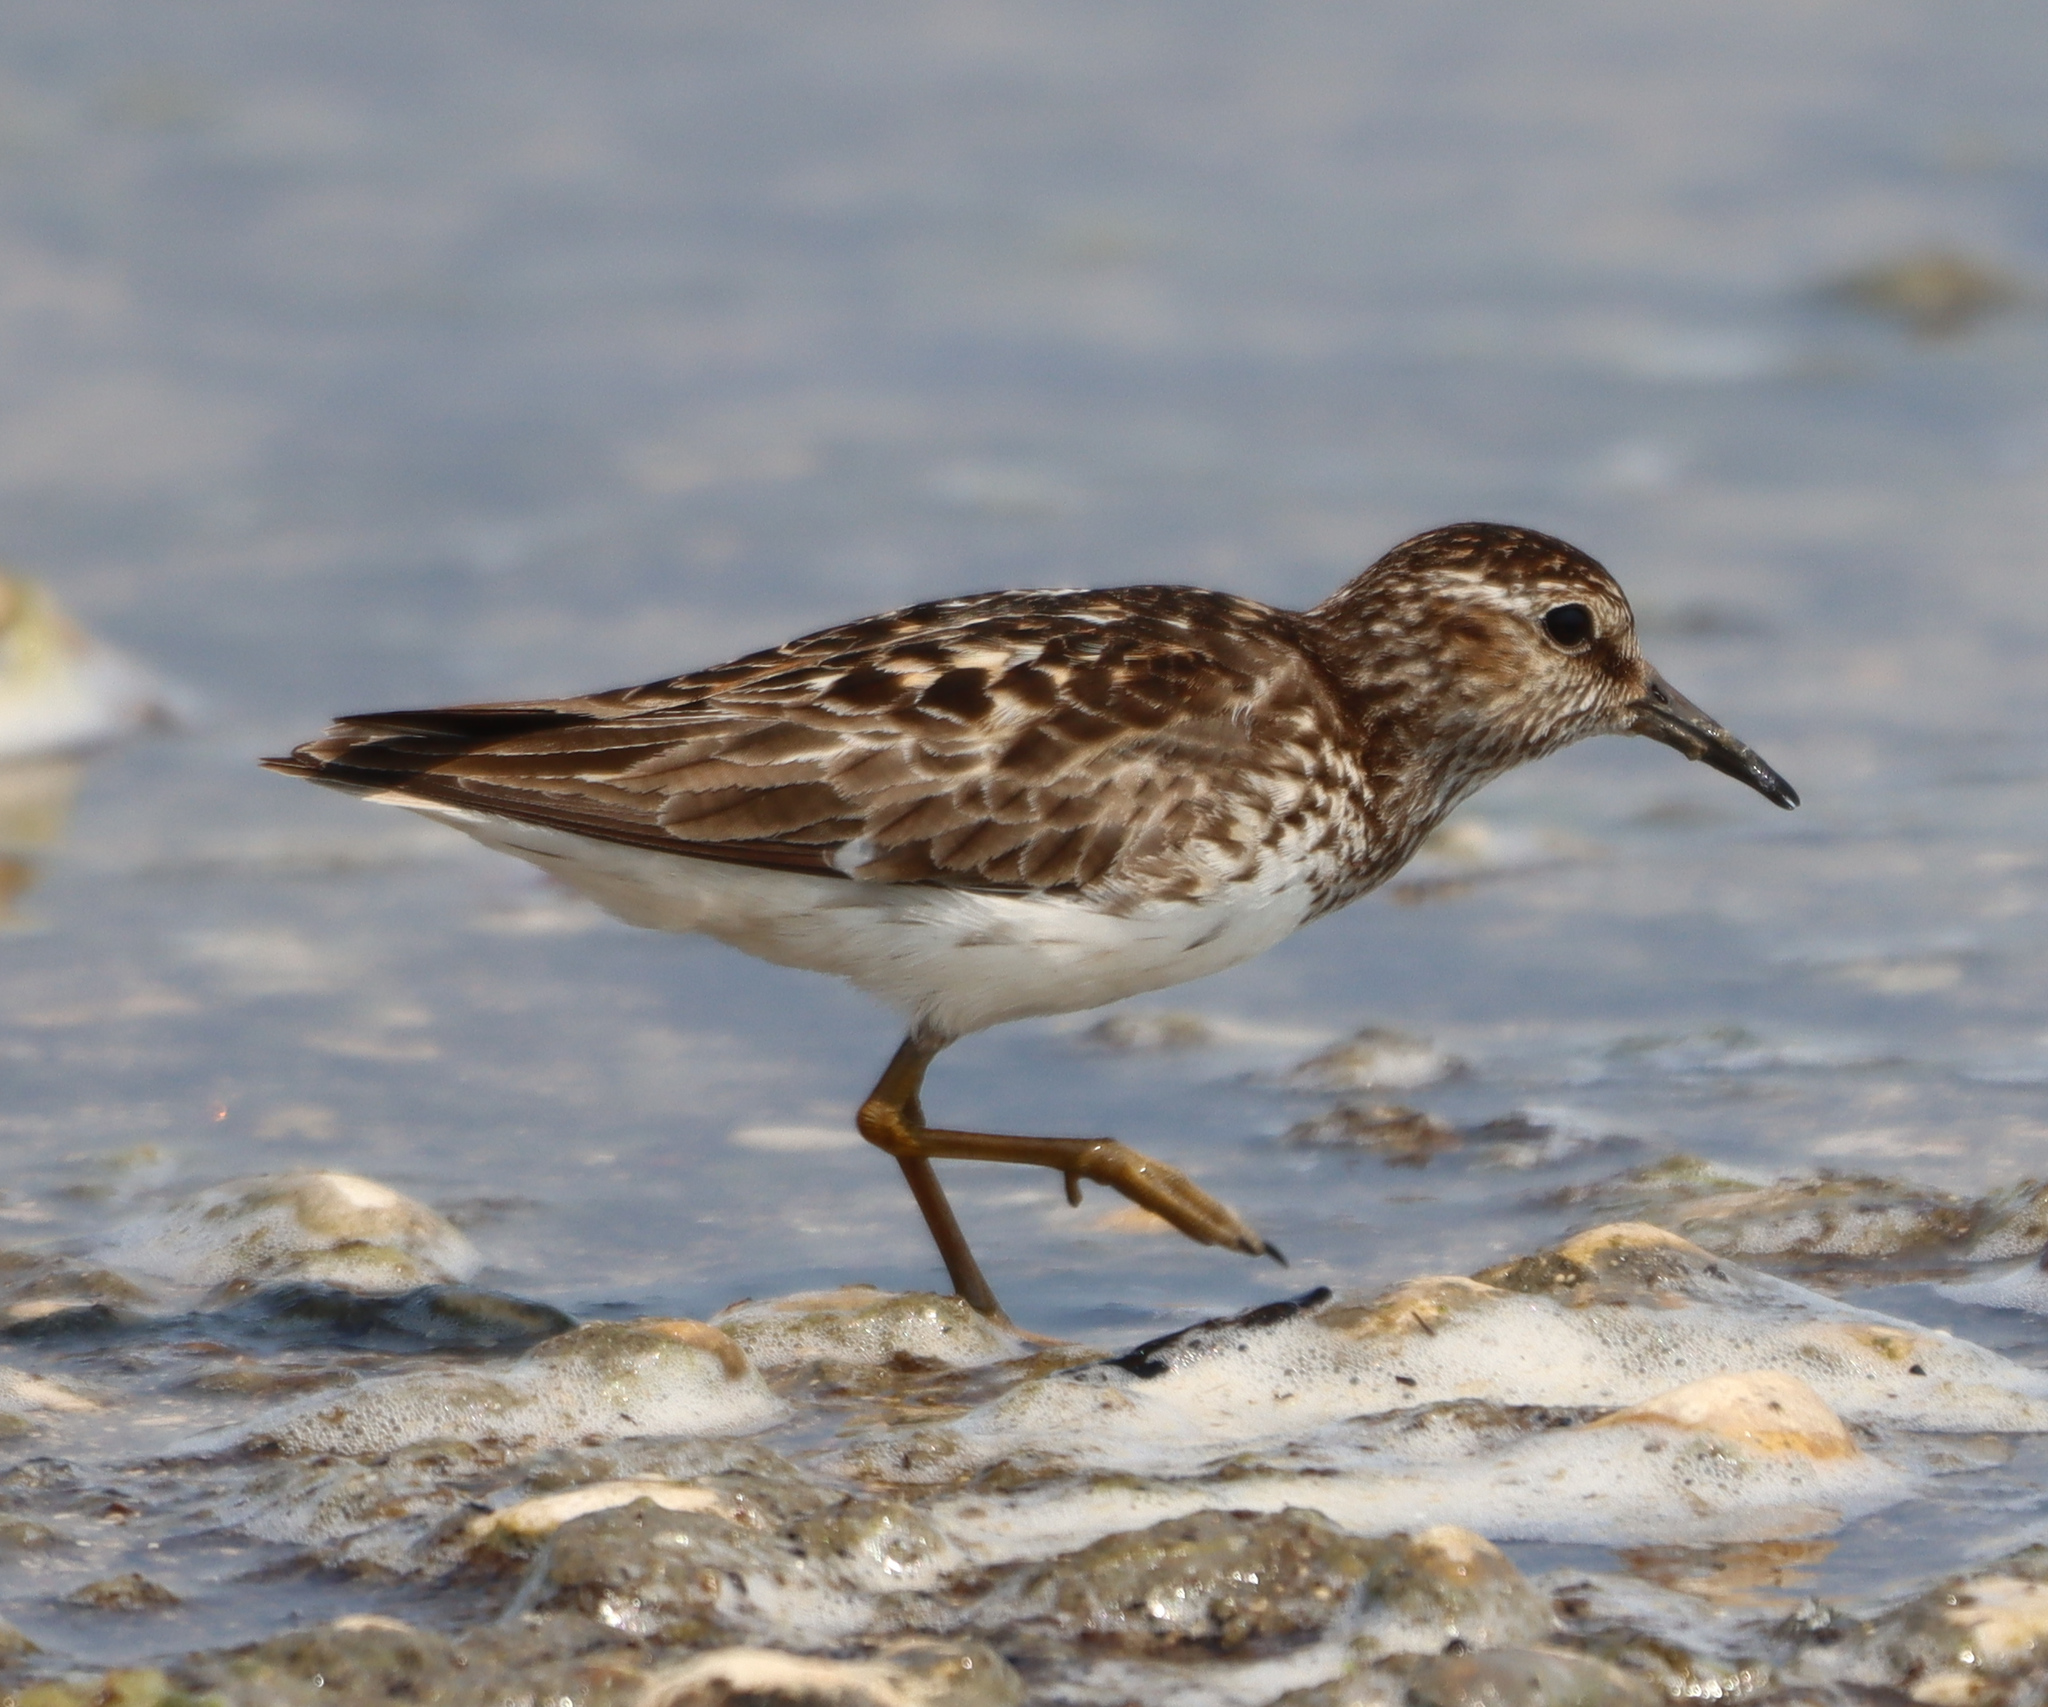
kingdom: Animalia
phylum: Chordata
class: Aves
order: Charadriiformes
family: Scolopacidae
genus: Calidris
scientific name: Calidris minutilla
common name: Least sandpiper
